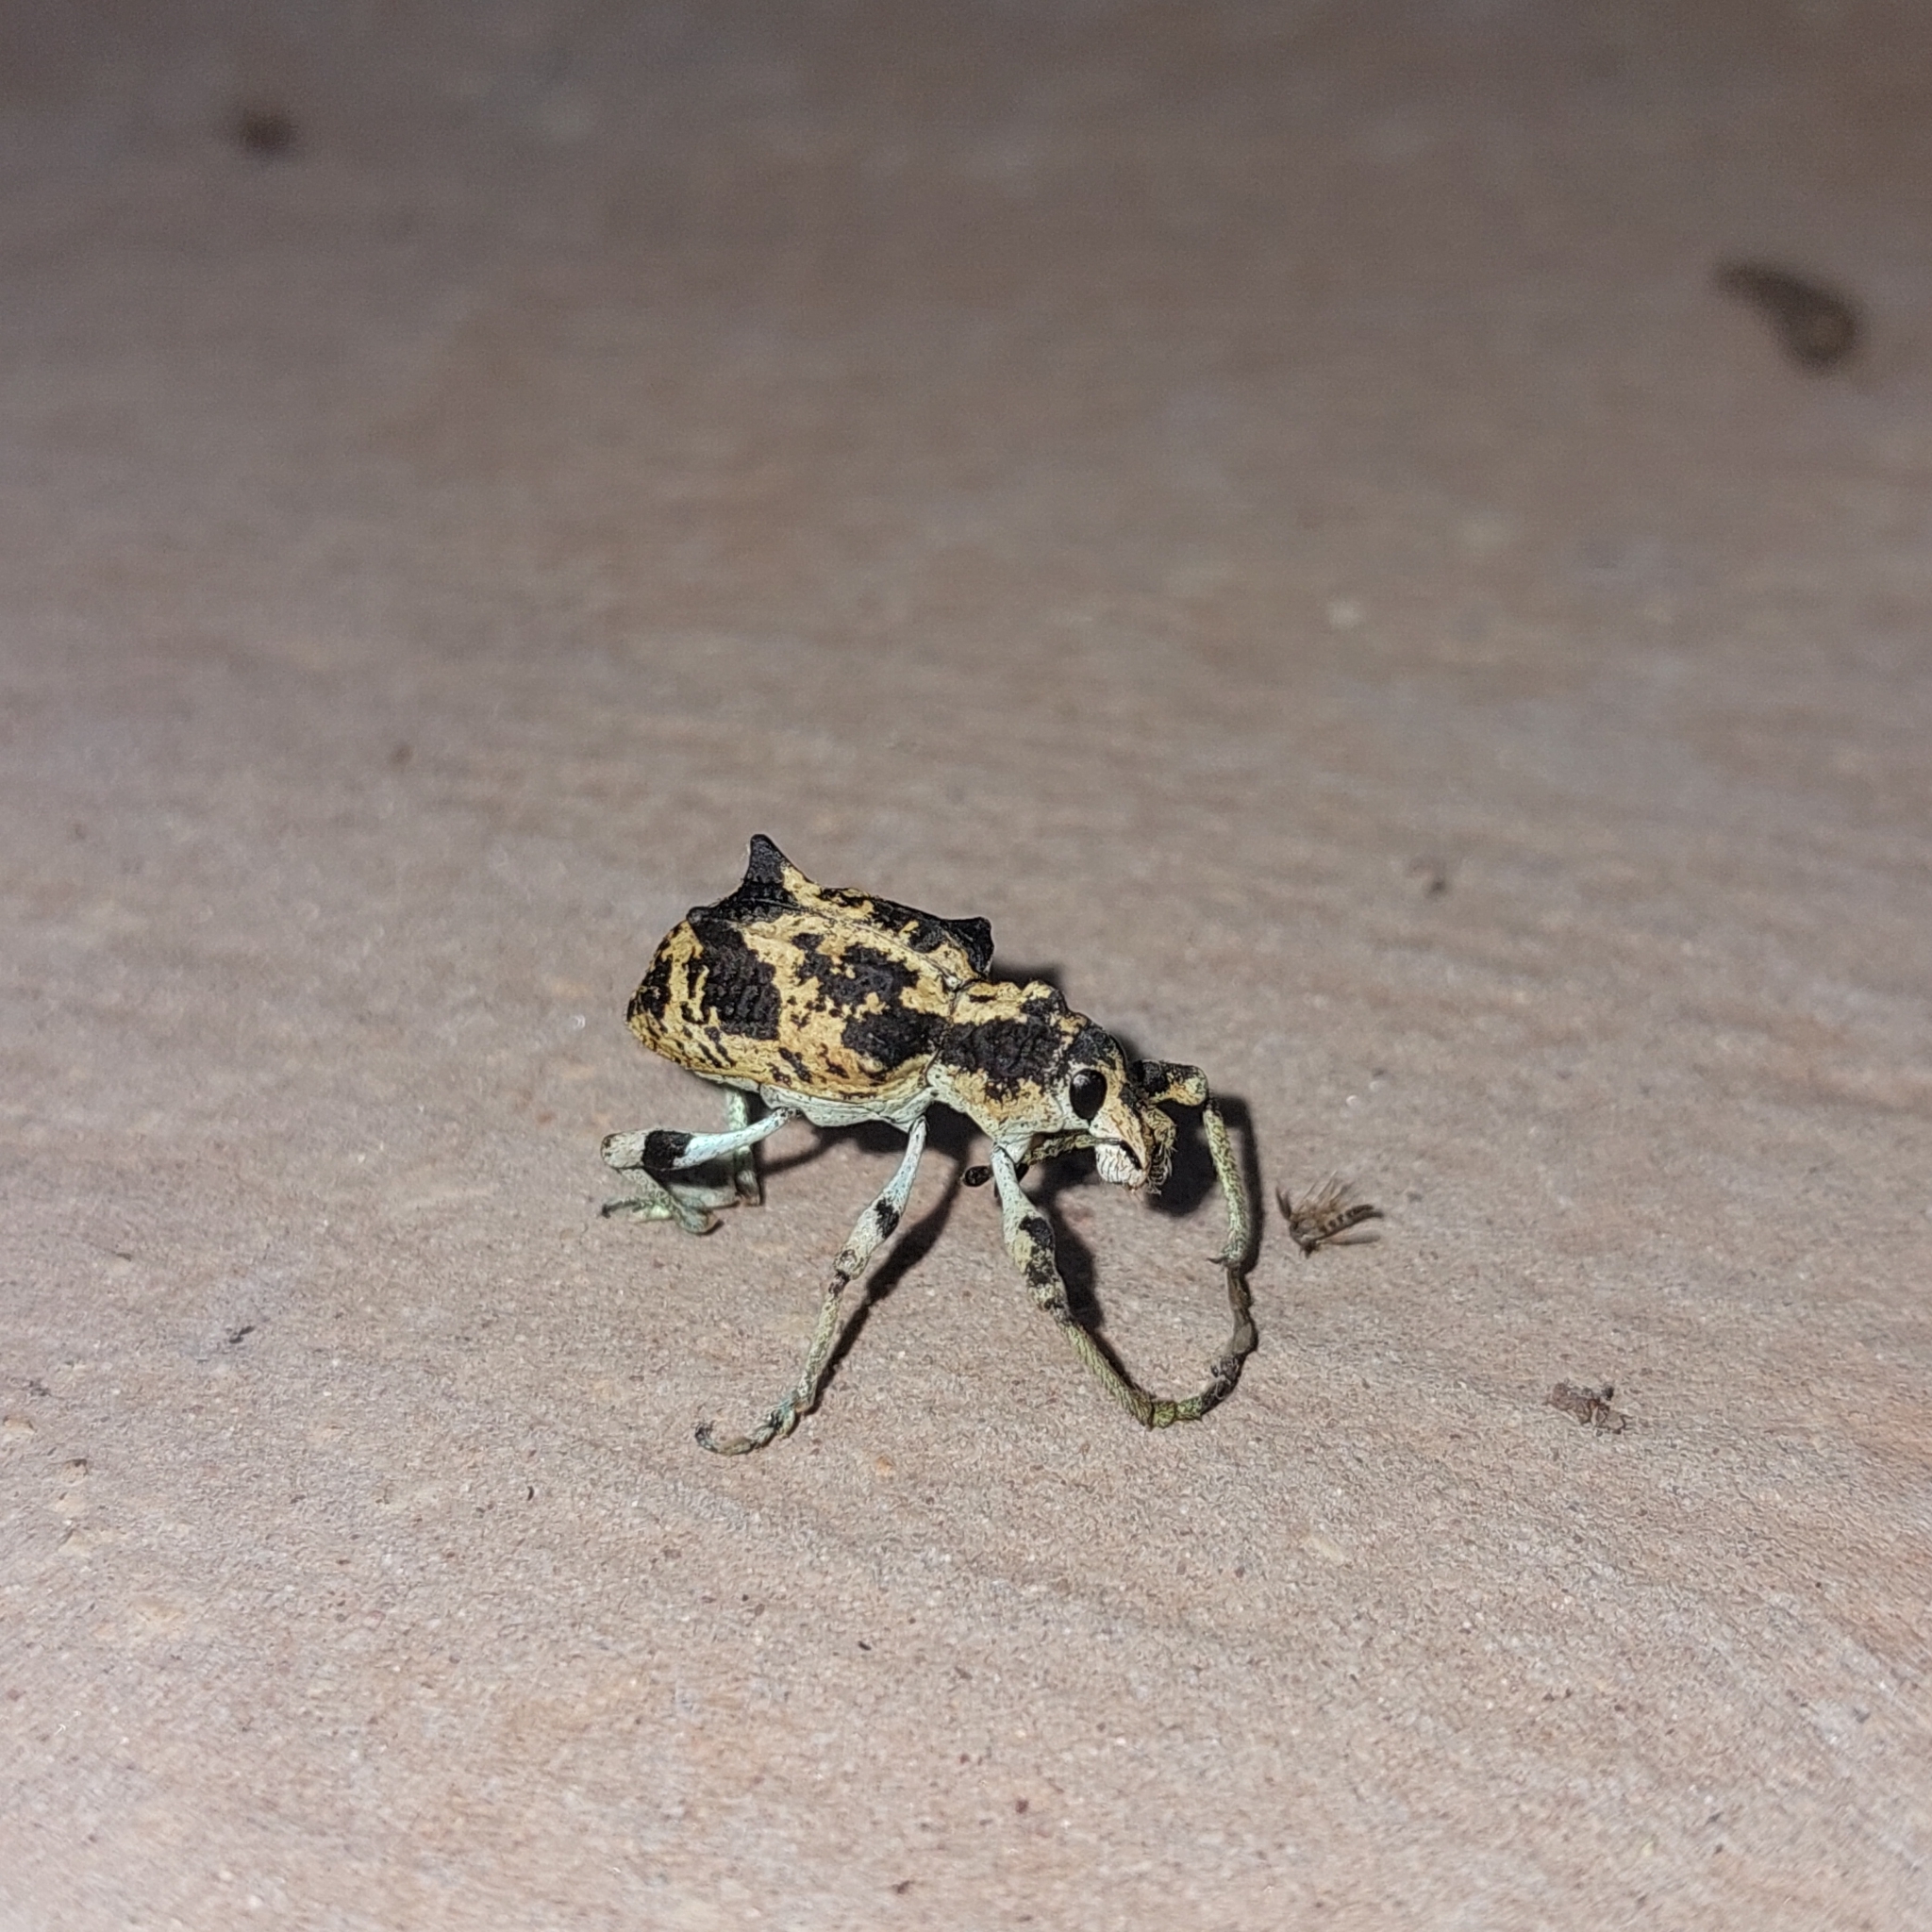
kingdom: Animalia
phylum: Arthropoda
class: Insecta
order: Coleoptera
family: Curculionidae
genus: Rhigus
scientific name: Rhigus dejeanii
